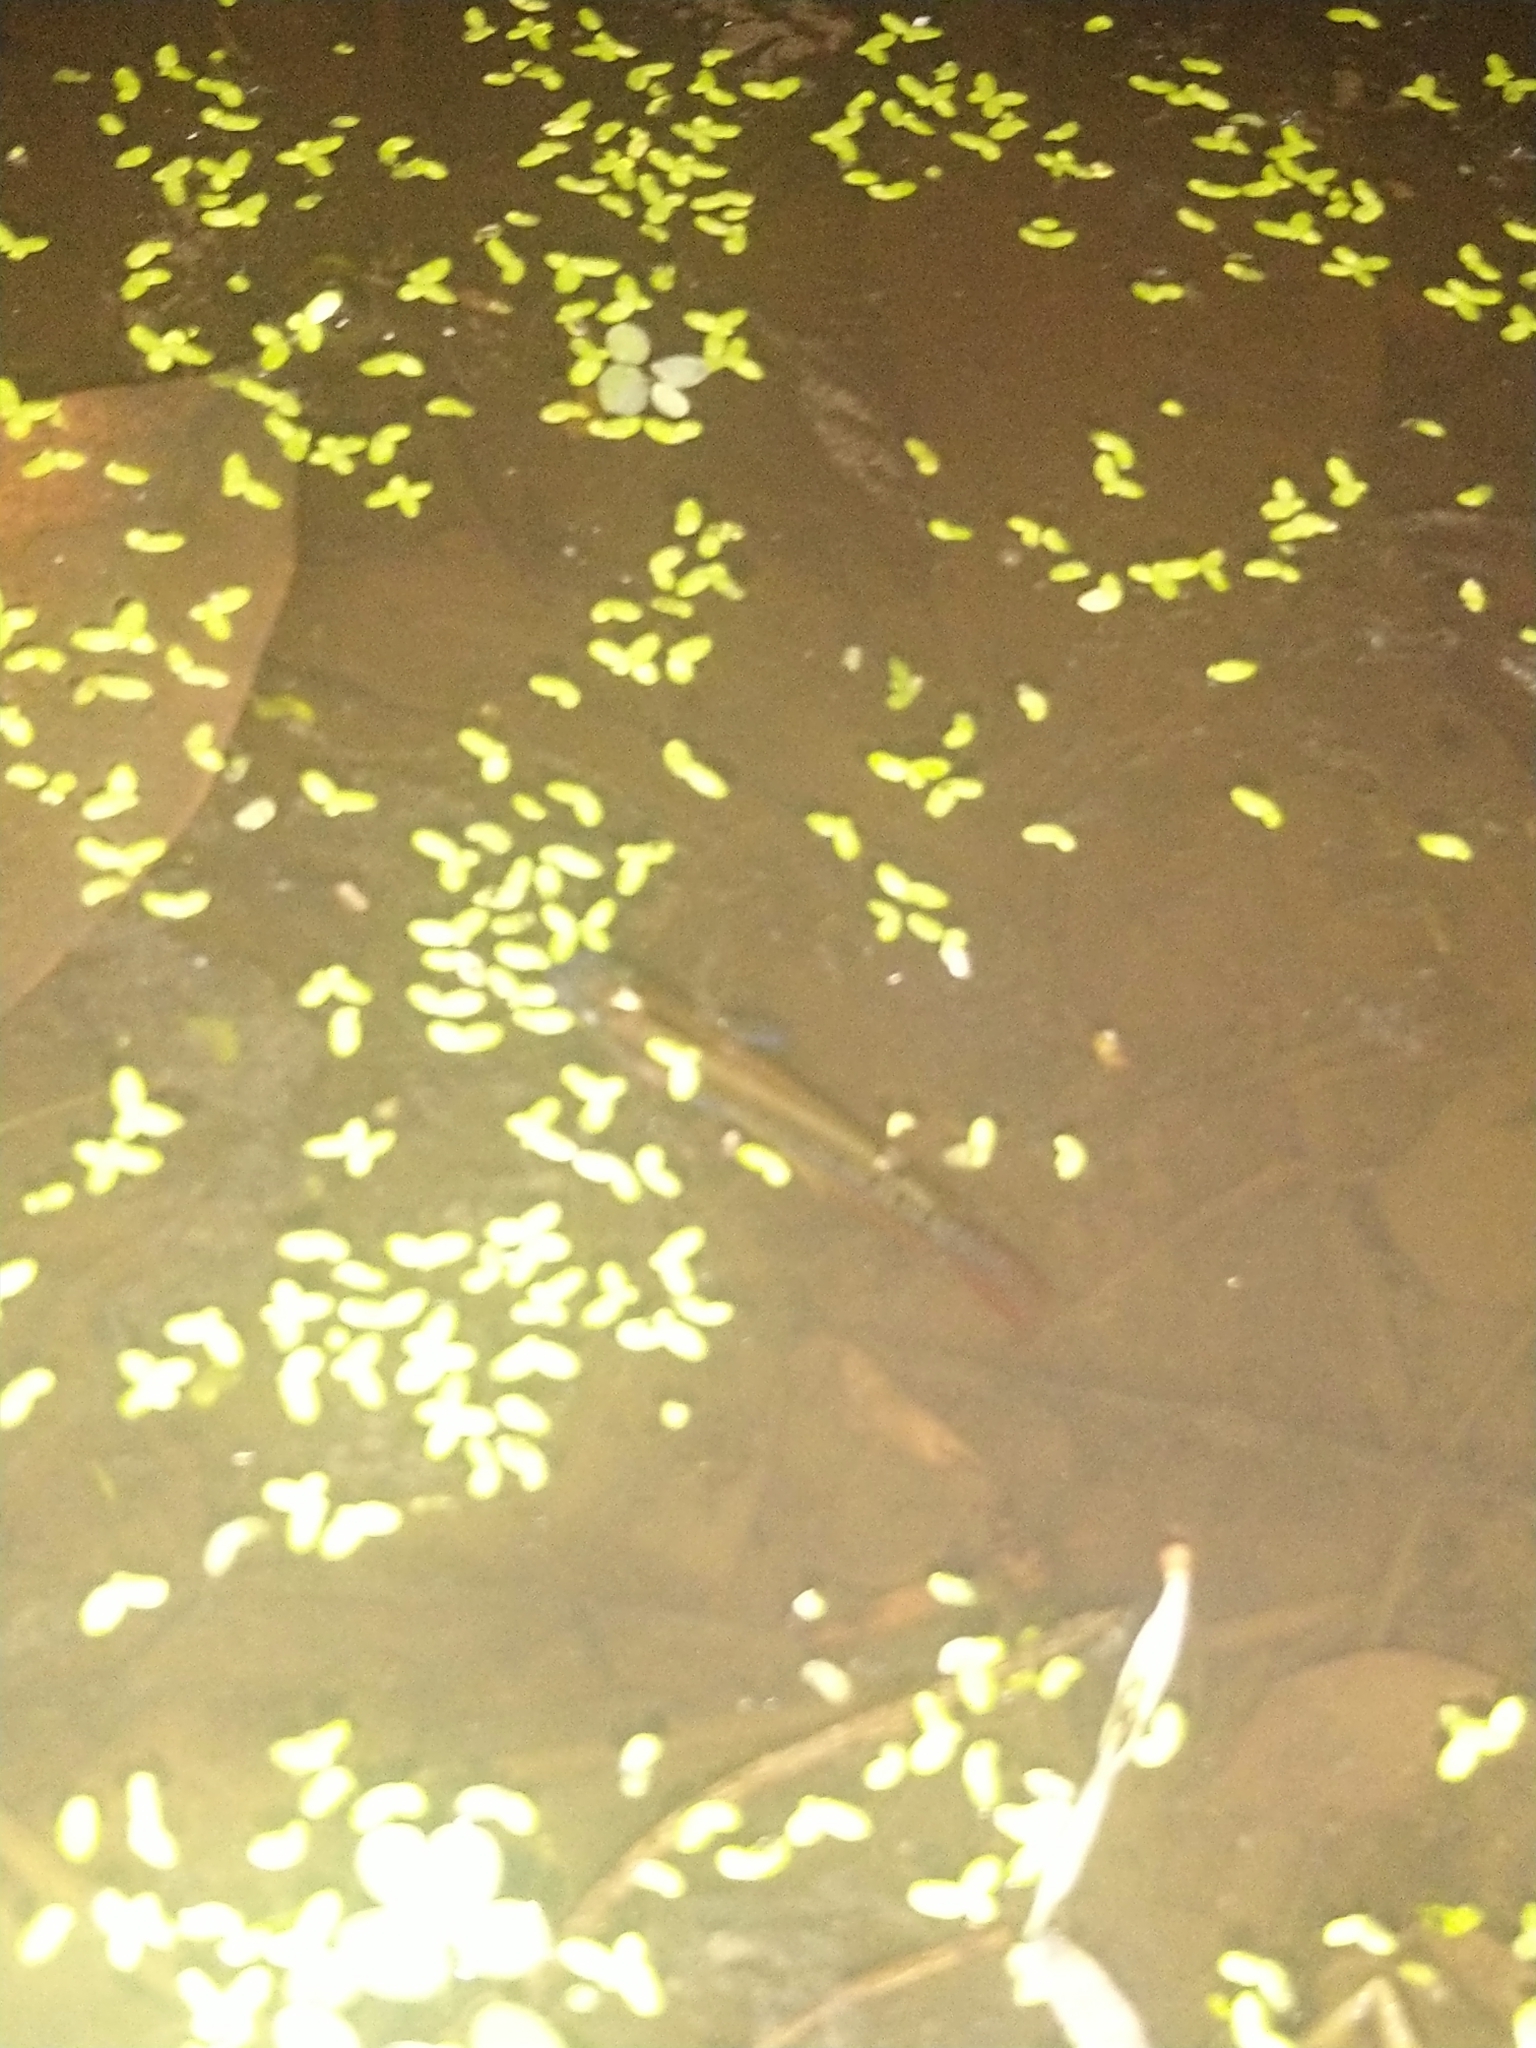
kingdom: Animalia
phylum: Chordata
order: Cyprinodontiformes
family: Aplocheilidae
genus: Aplocheilus
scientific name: Aplocheilus lineatus
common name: Striped panchax
